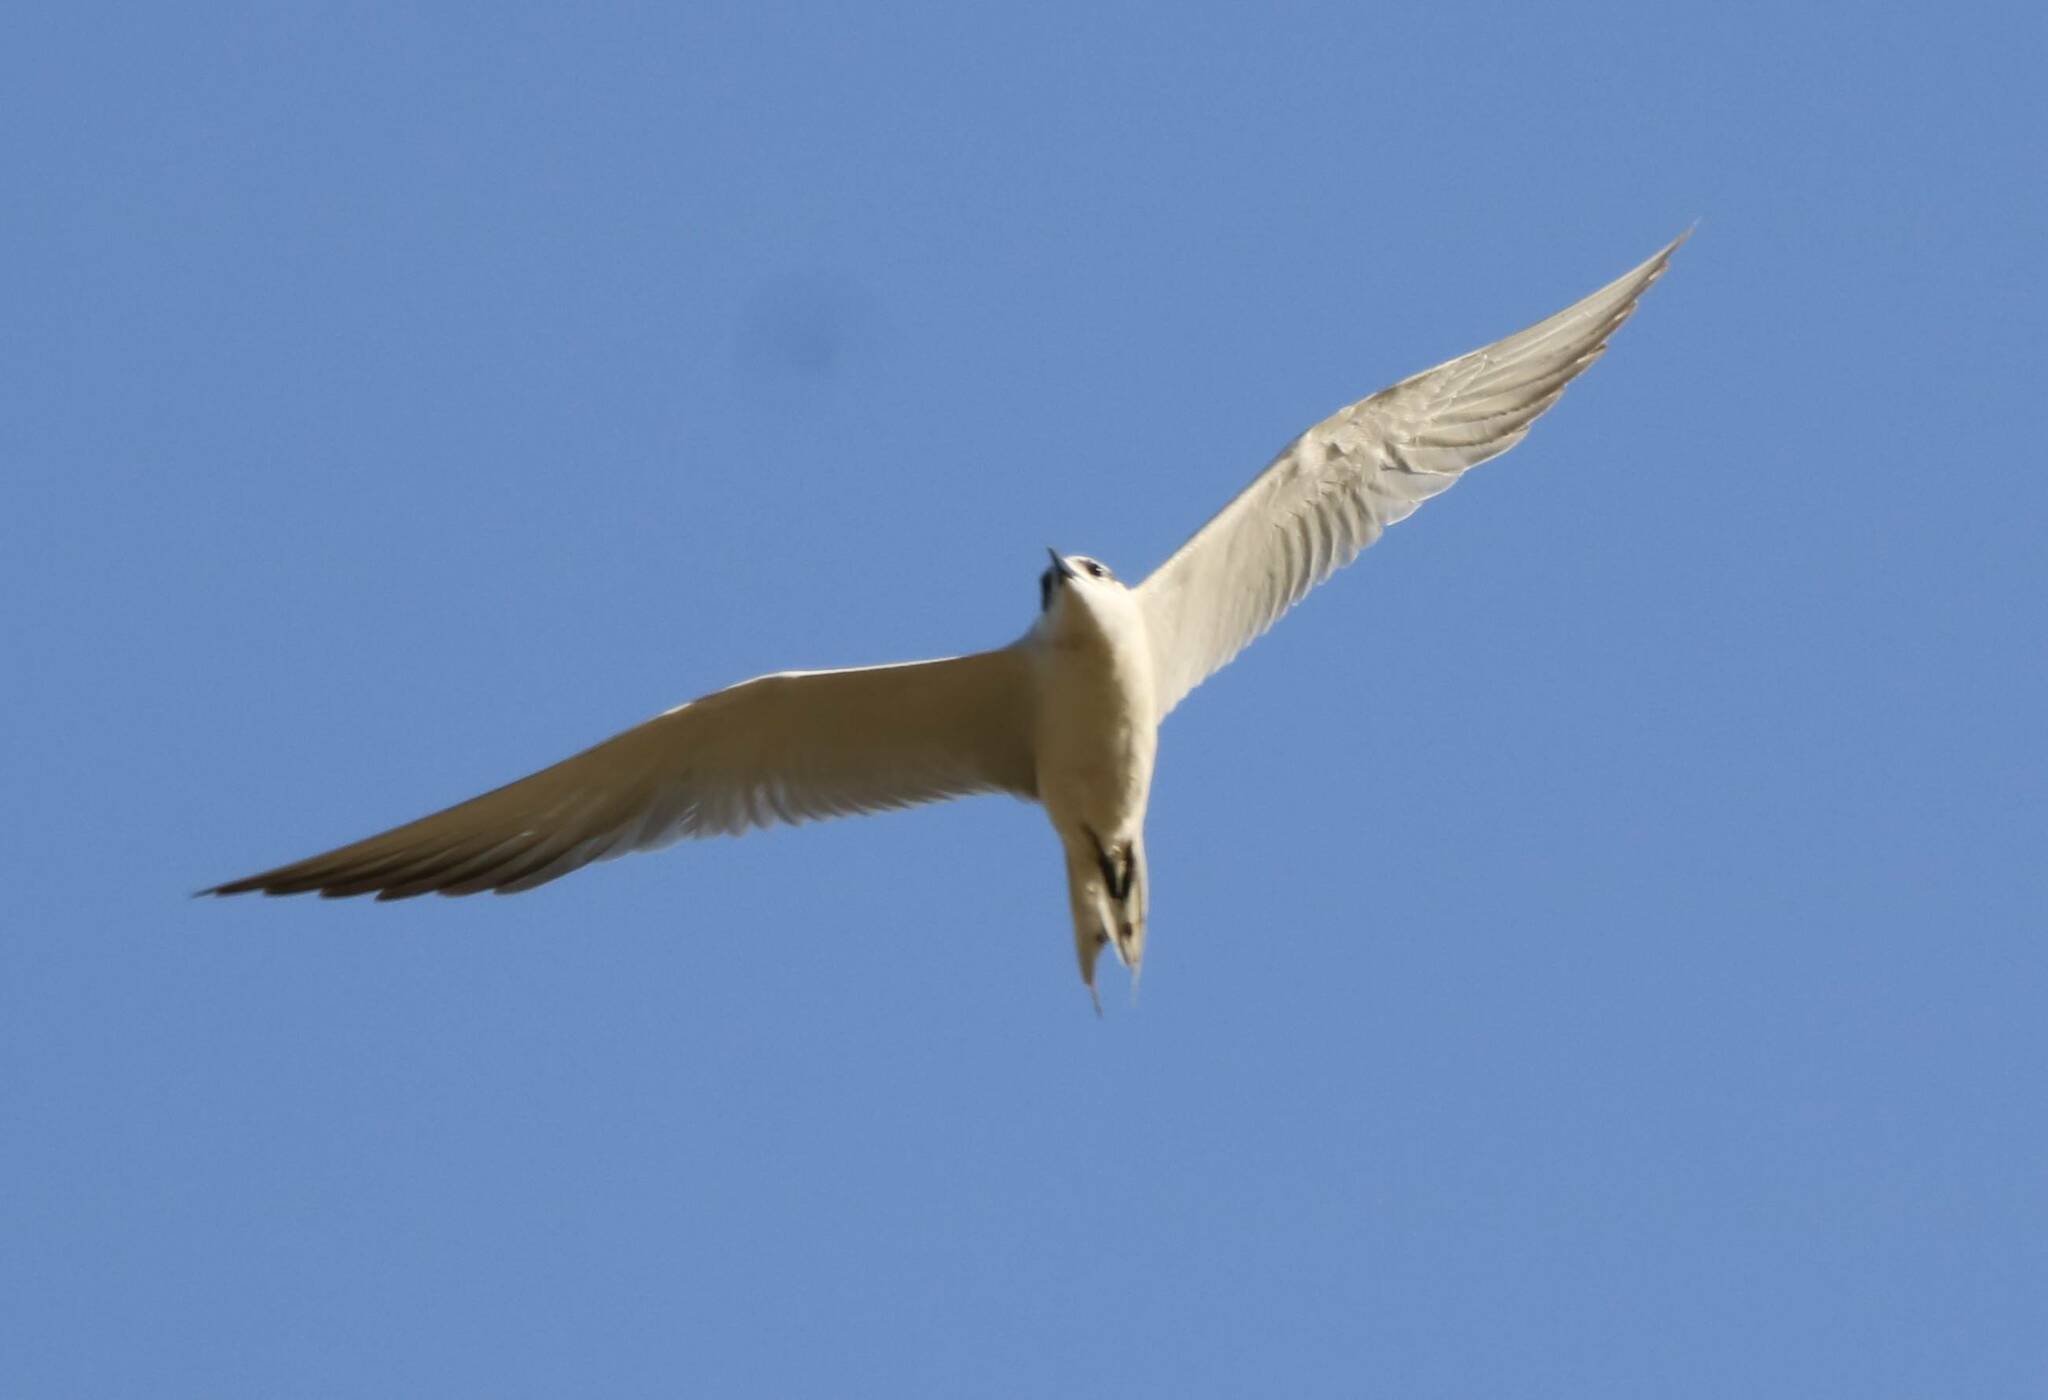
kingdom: Animalia
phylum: Chordata
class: Aves
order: Charadriiformes
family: Laridae
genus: Gelochelidon
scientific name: Gelochelidon nilotica
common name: Gull-billed tern
